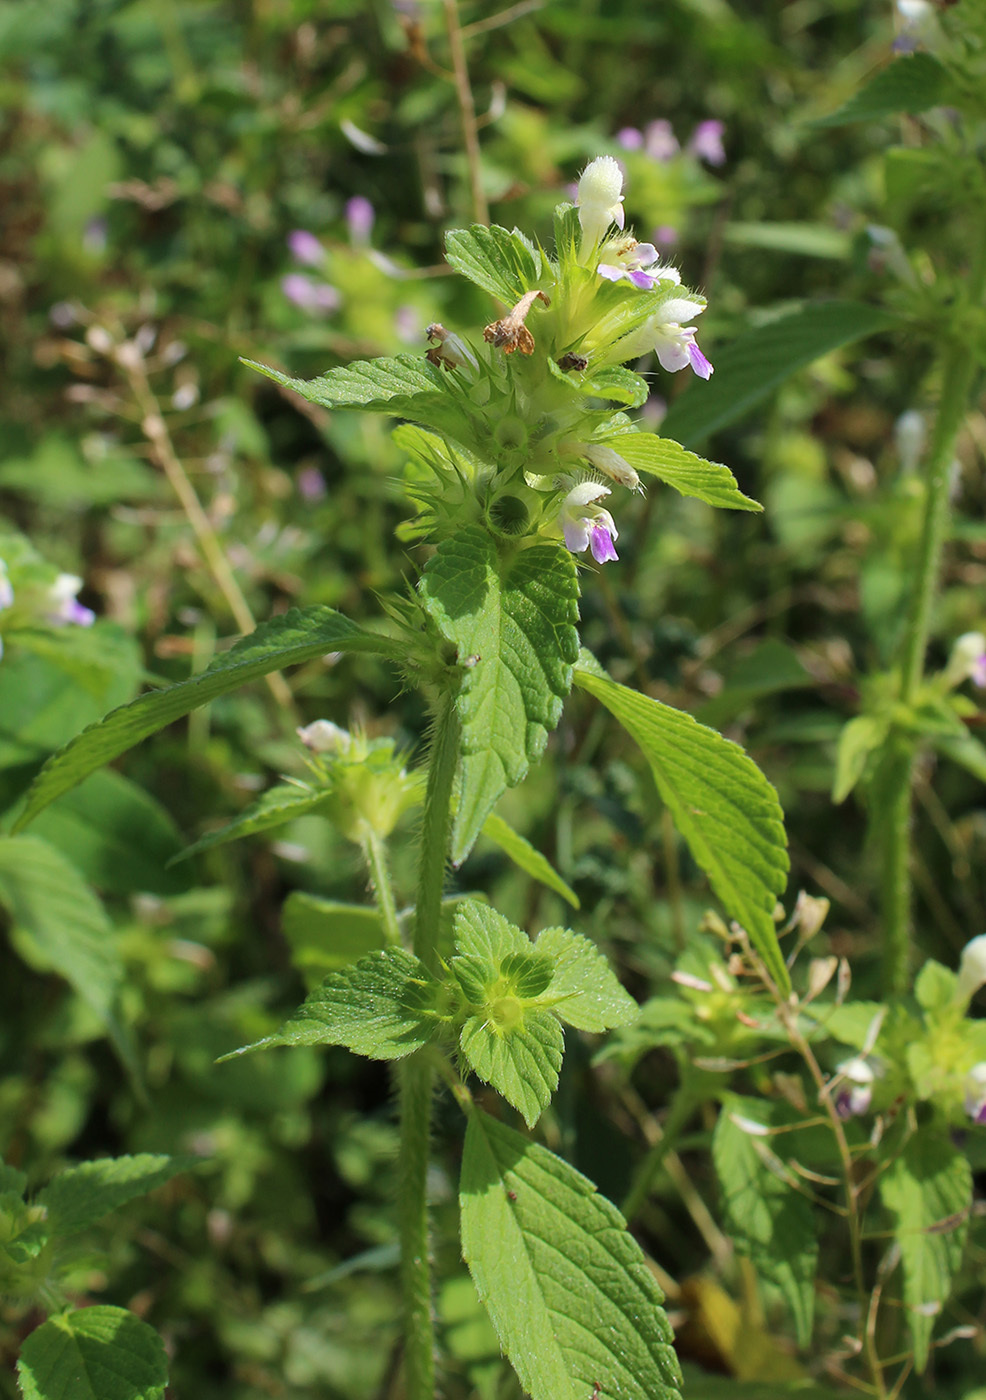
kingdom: Plantae
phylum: Tracheophyta
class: Magnoliopsida
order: Lamiales
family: Lamiaceae
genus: Galeopsis
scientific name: Galeopsis bifida
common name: Bifid hemp-nettle
